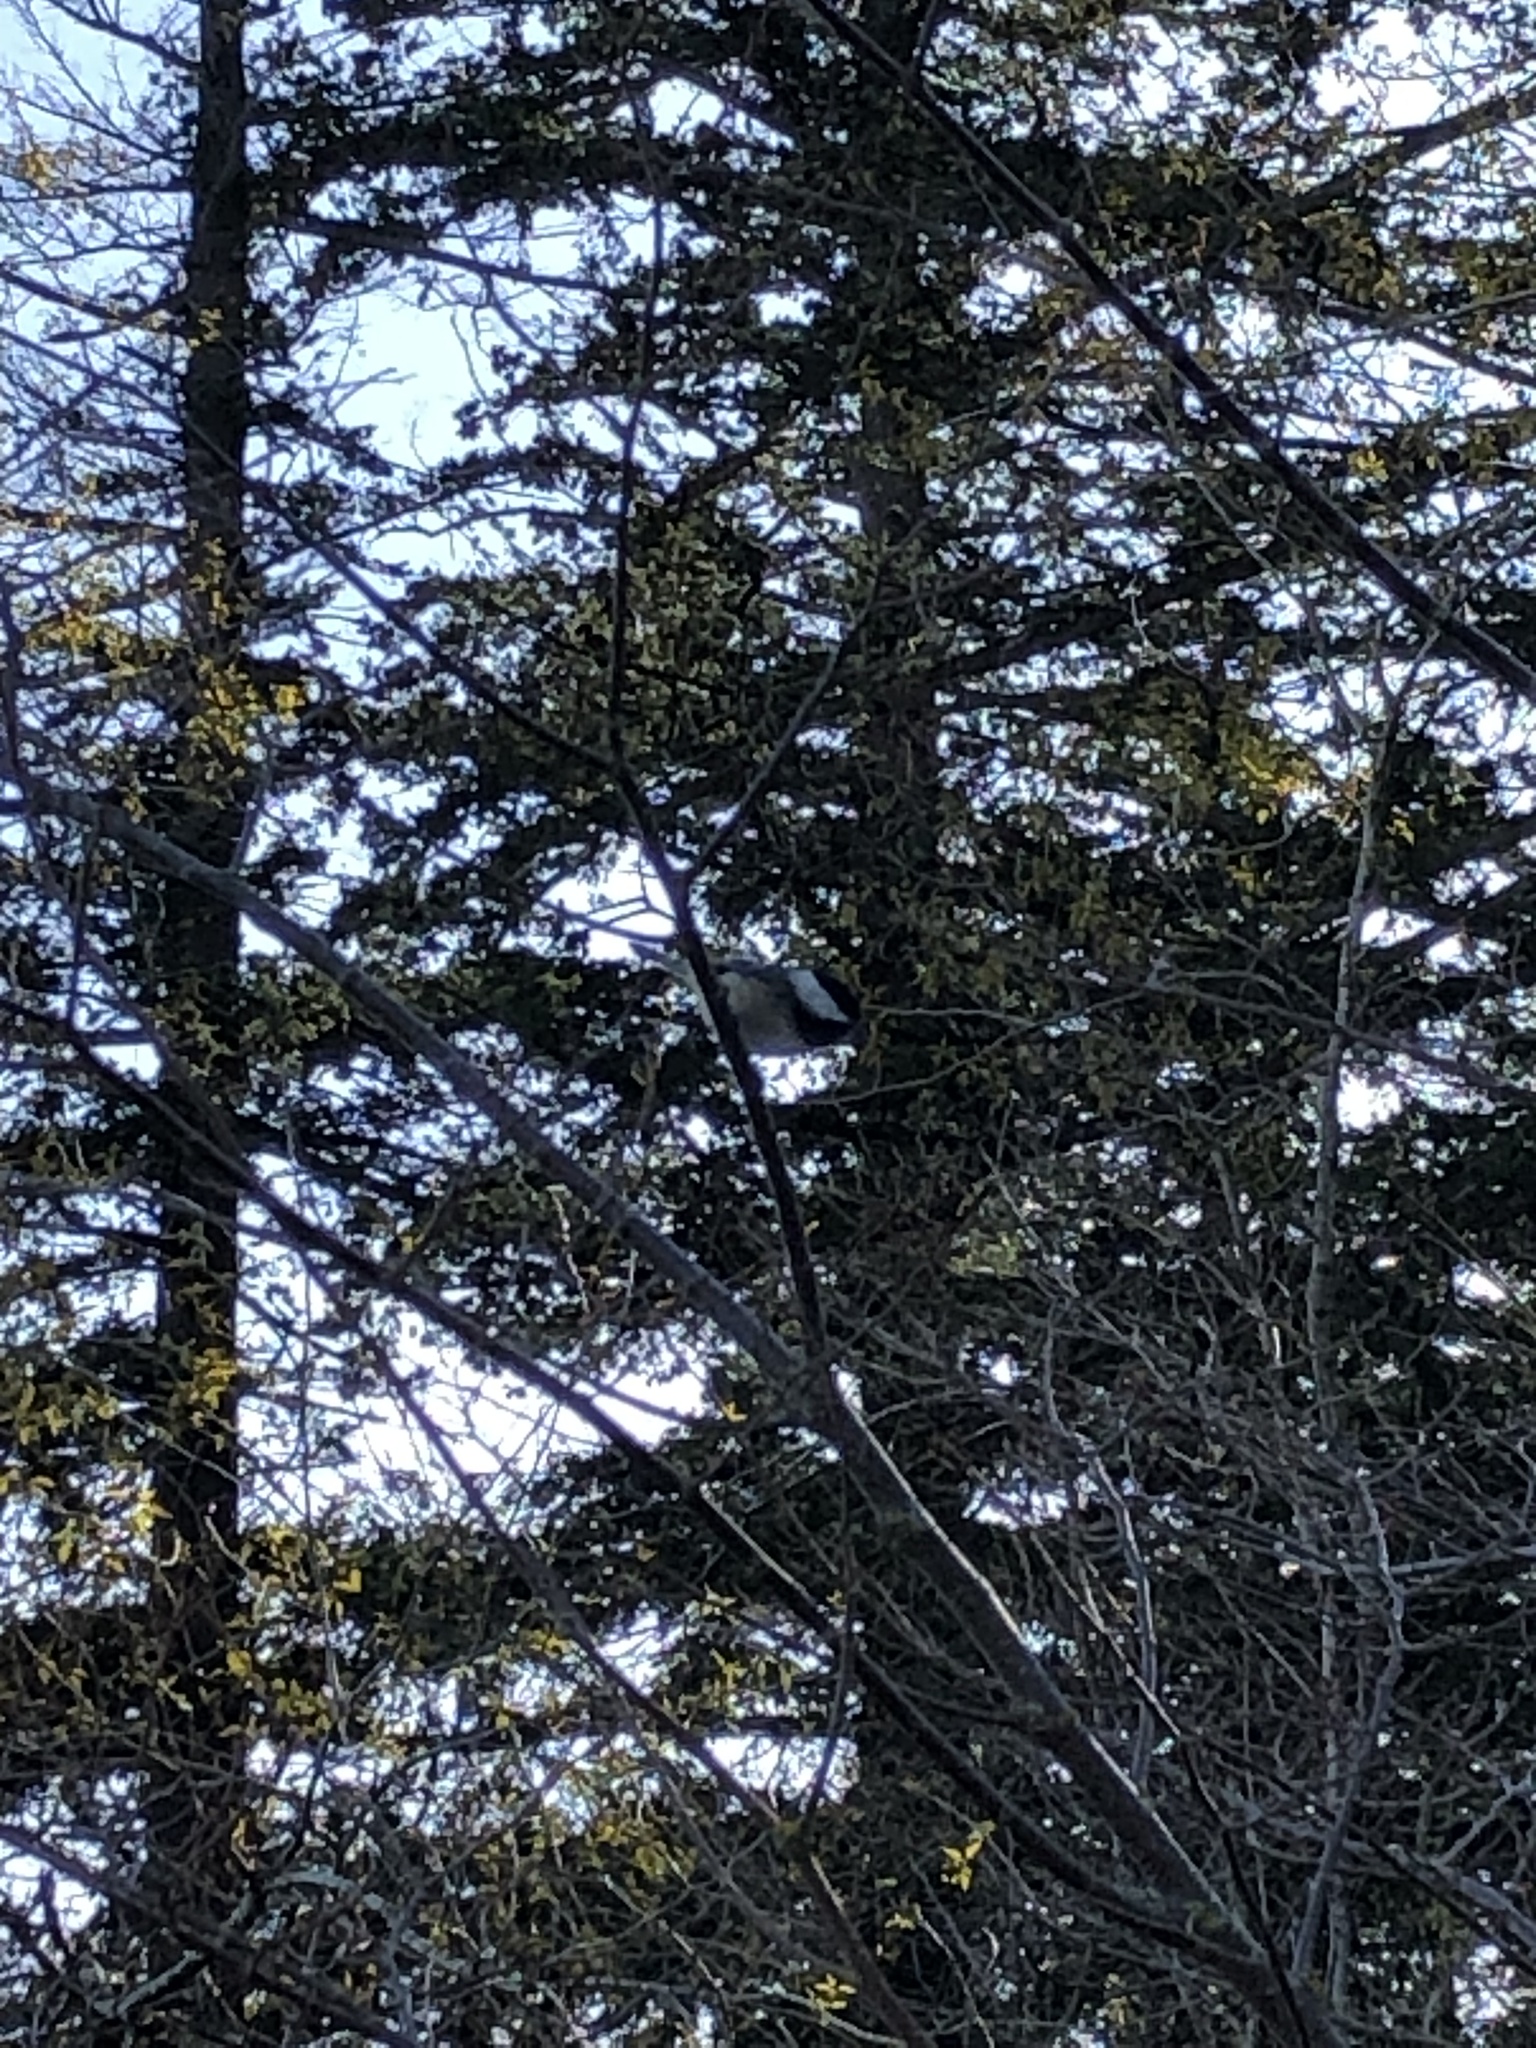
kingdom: Animalia
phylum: Chordata
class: Aves
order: Passeriformes
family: Paridae
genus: Poecile
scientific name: Poecile atricapillus
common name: Black-capped chickadee
